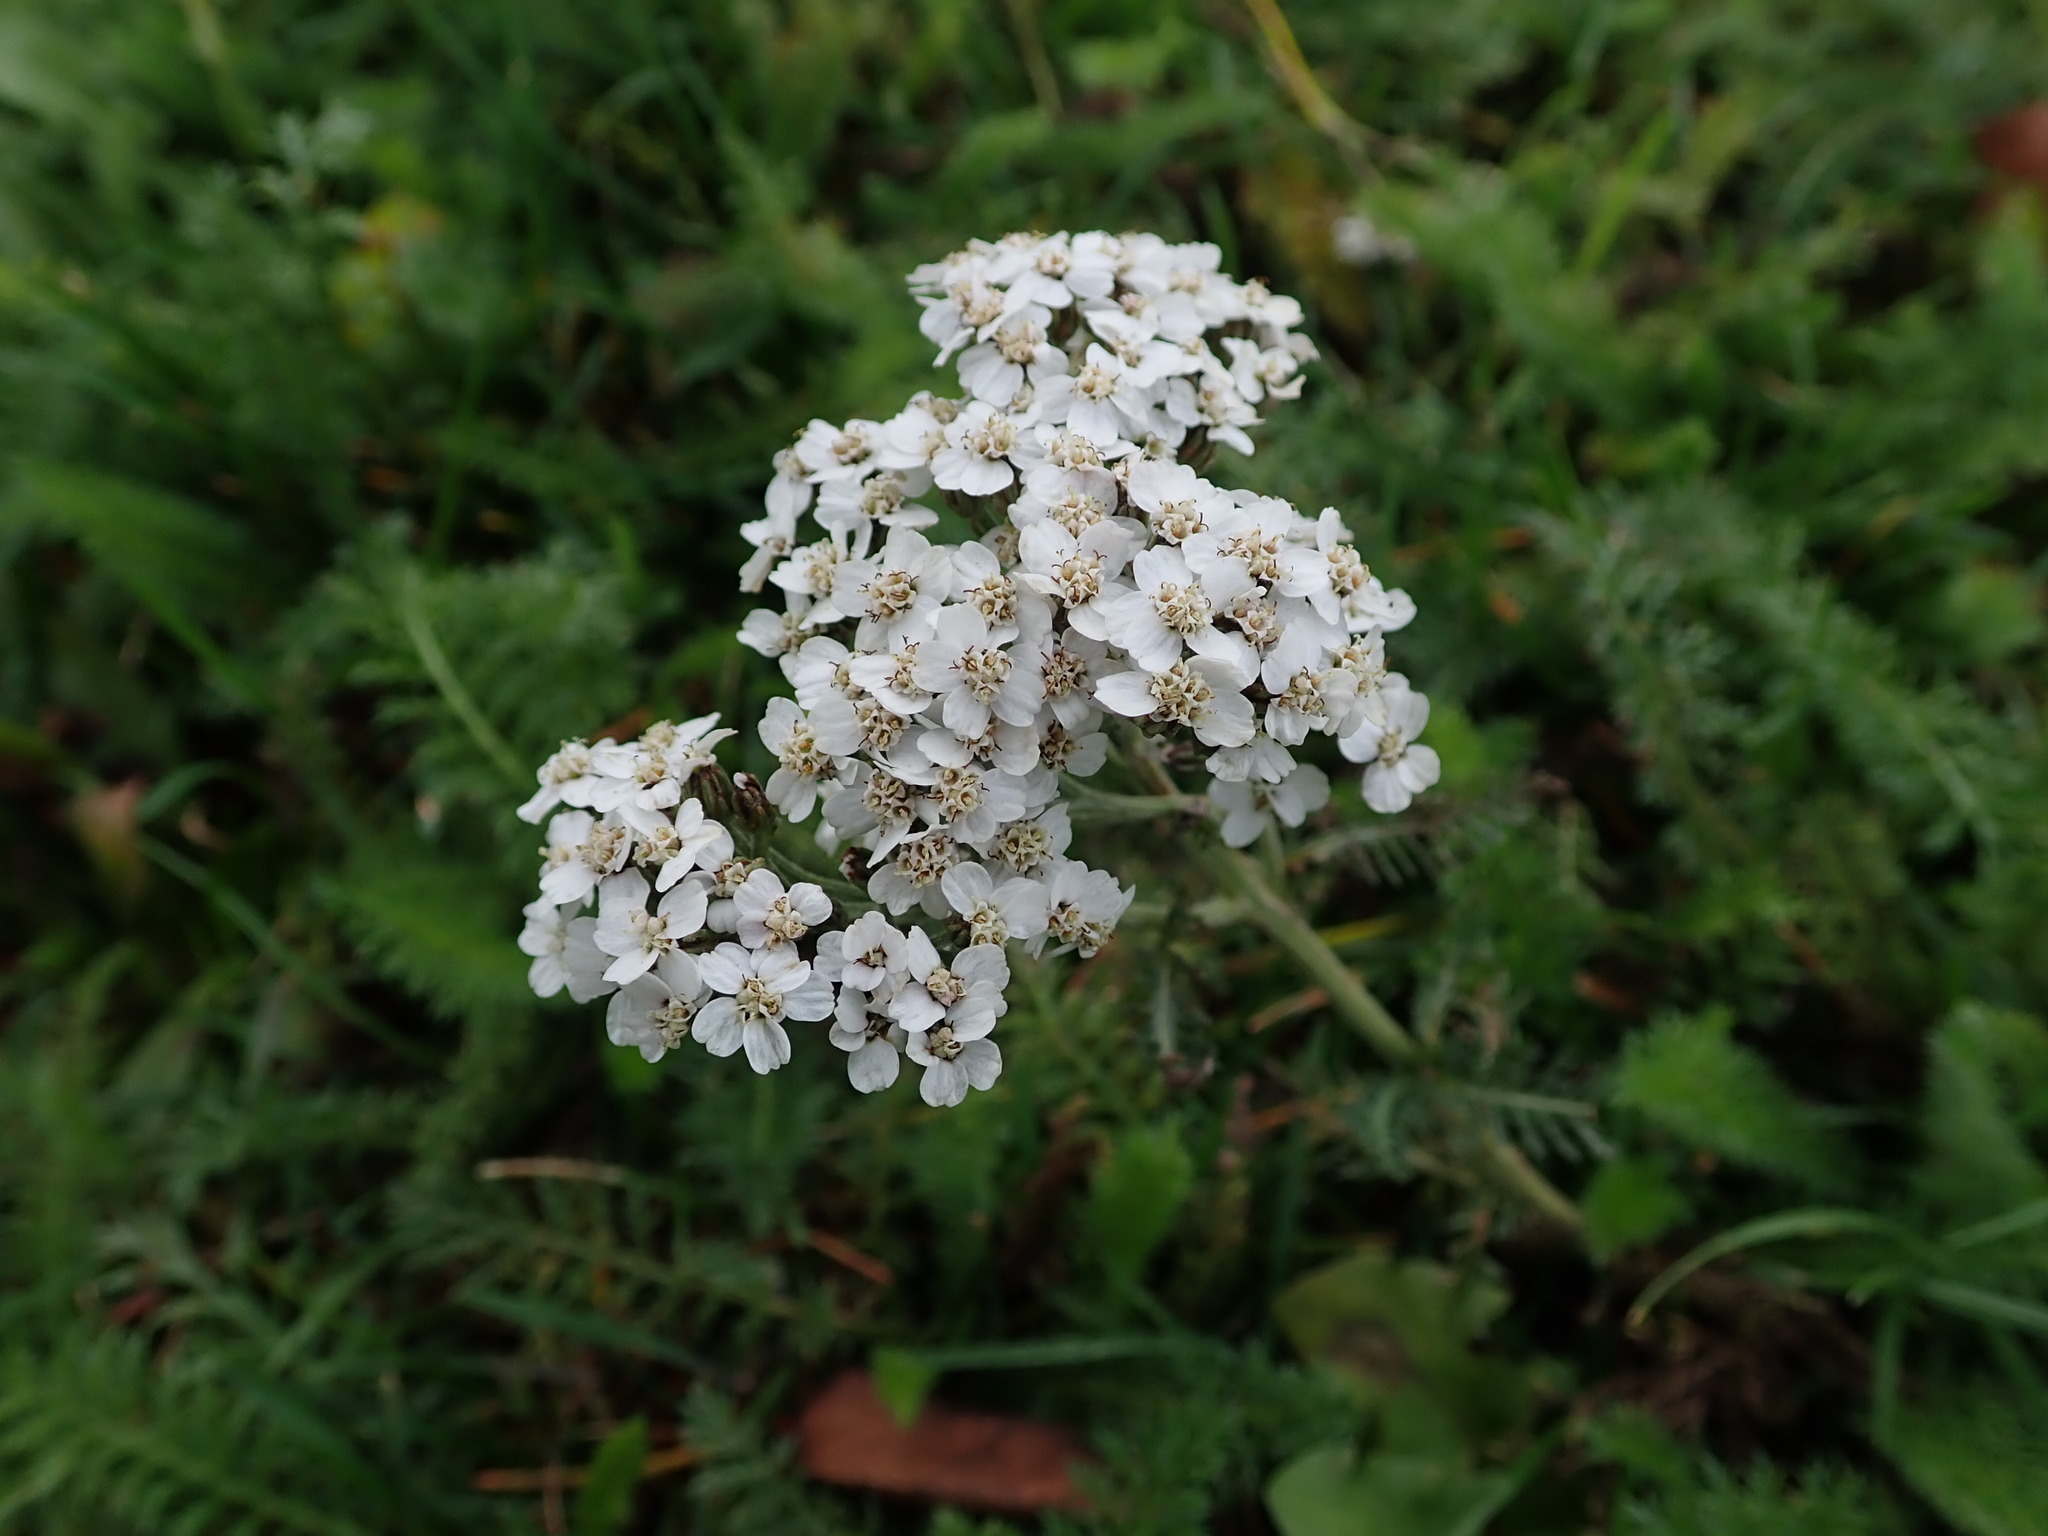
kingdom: Plantae
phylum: Tracheophyta
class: Magnoliopsida
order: Asterales
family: Asteraceae
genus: Achillea
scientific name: Achillea millefolium
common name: Yarrow
